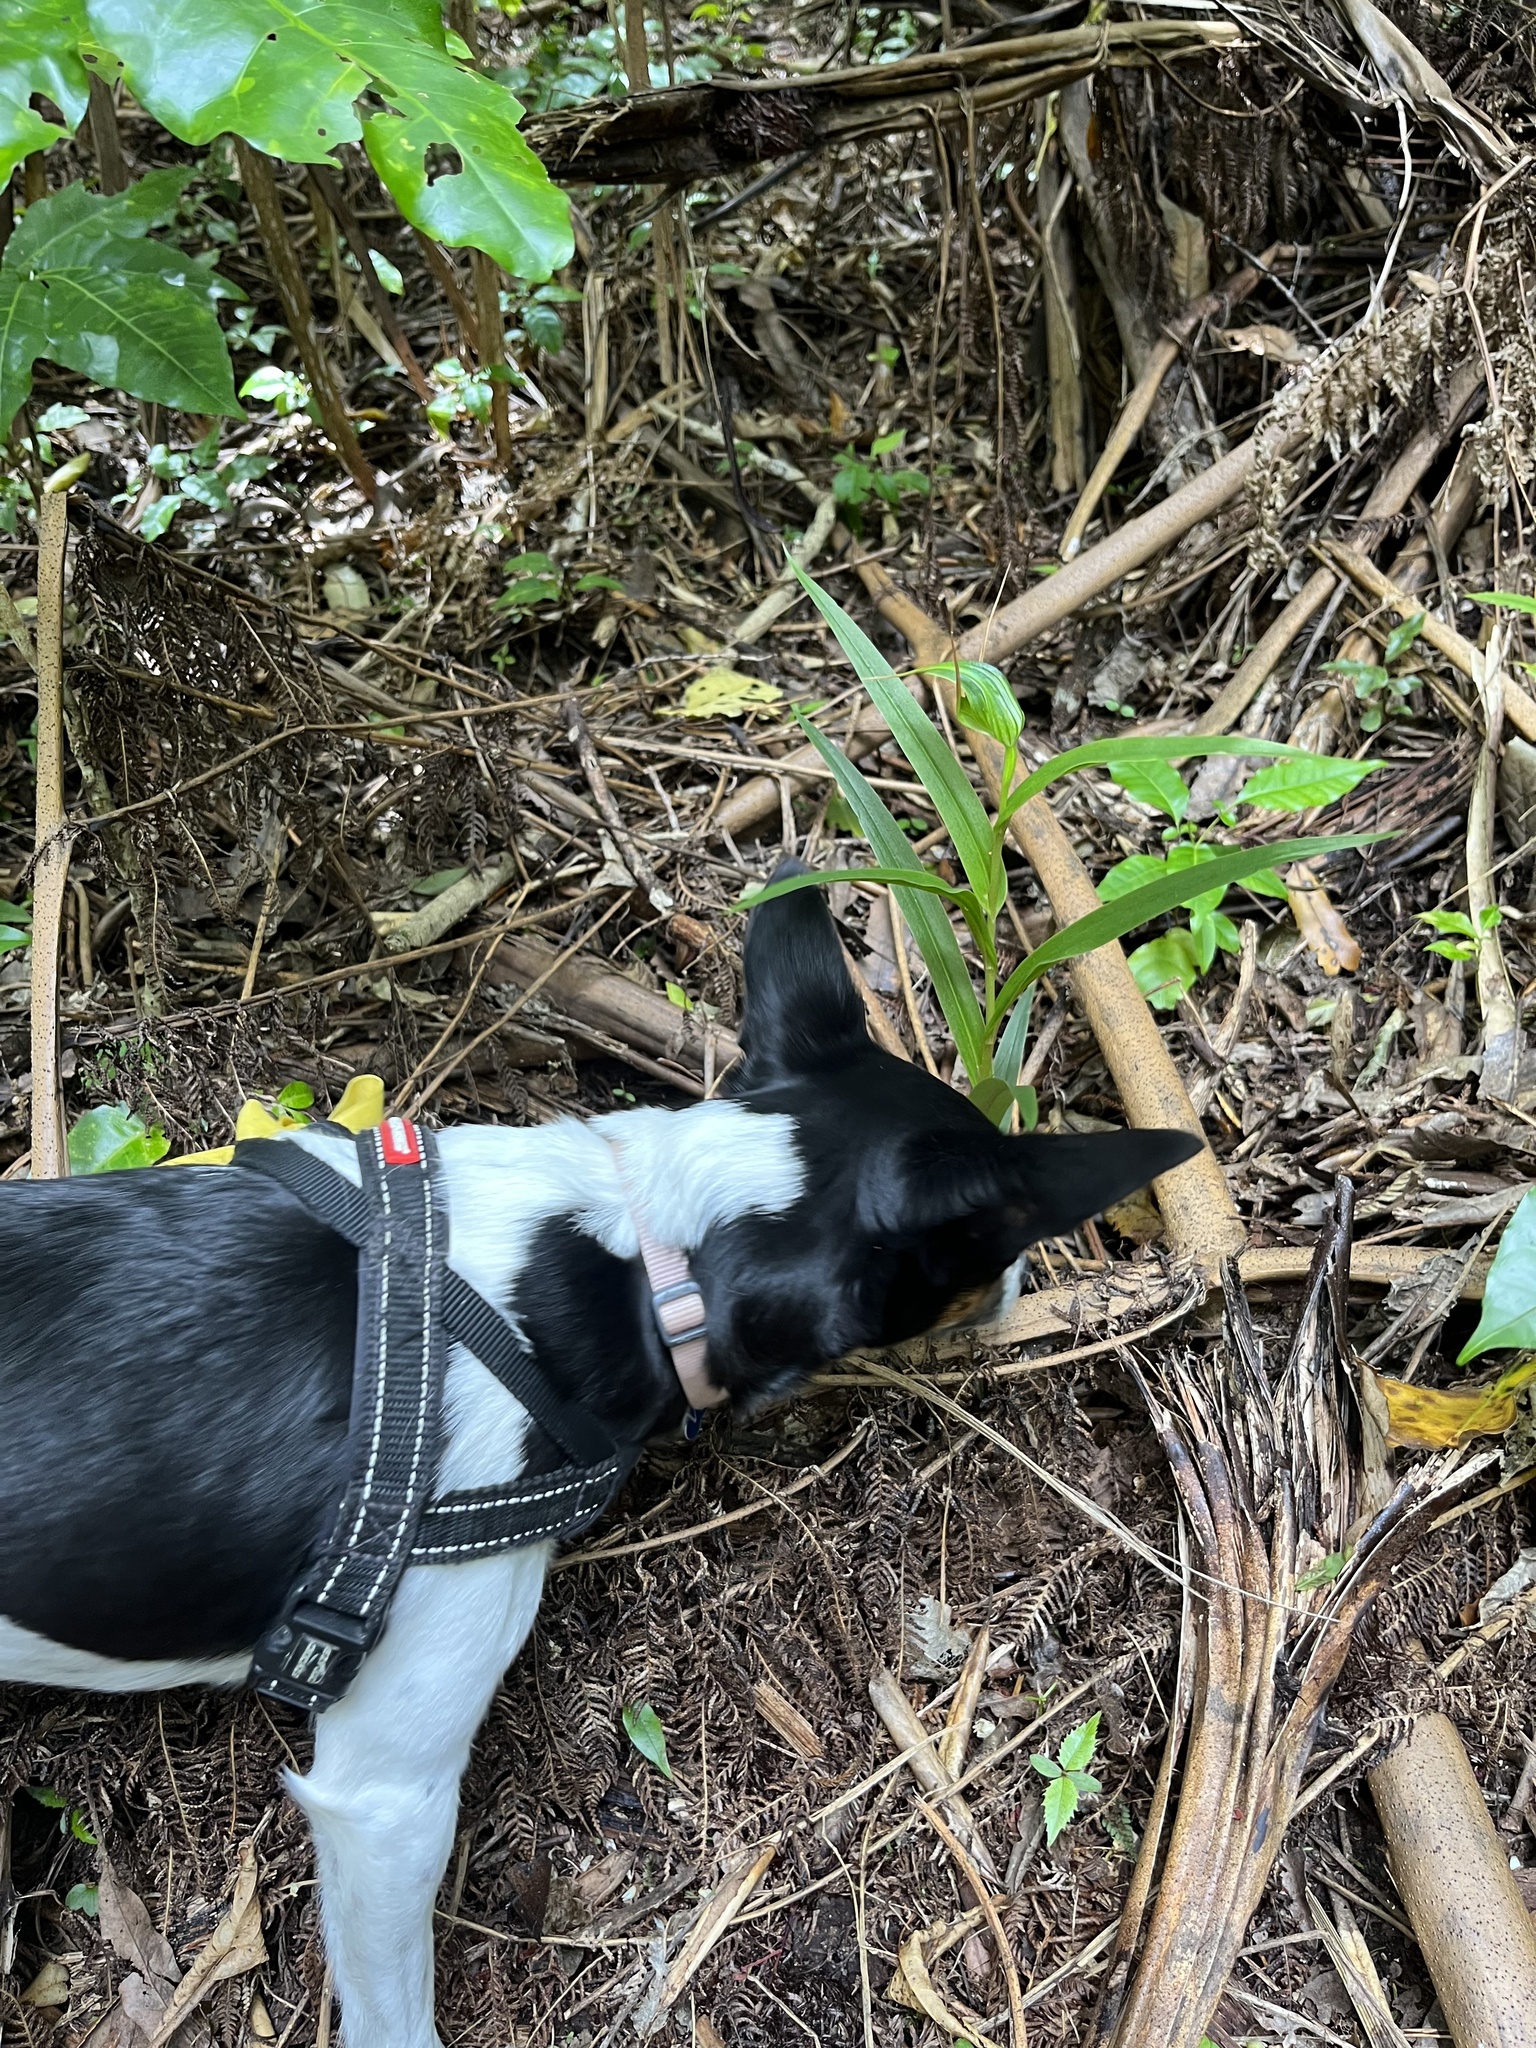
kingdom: Plantae
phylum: Tracheophyta
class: Liliopsida
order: Asparagales
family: Orchidaceae
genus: Pterostylis
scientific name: Pterostylis banksii
